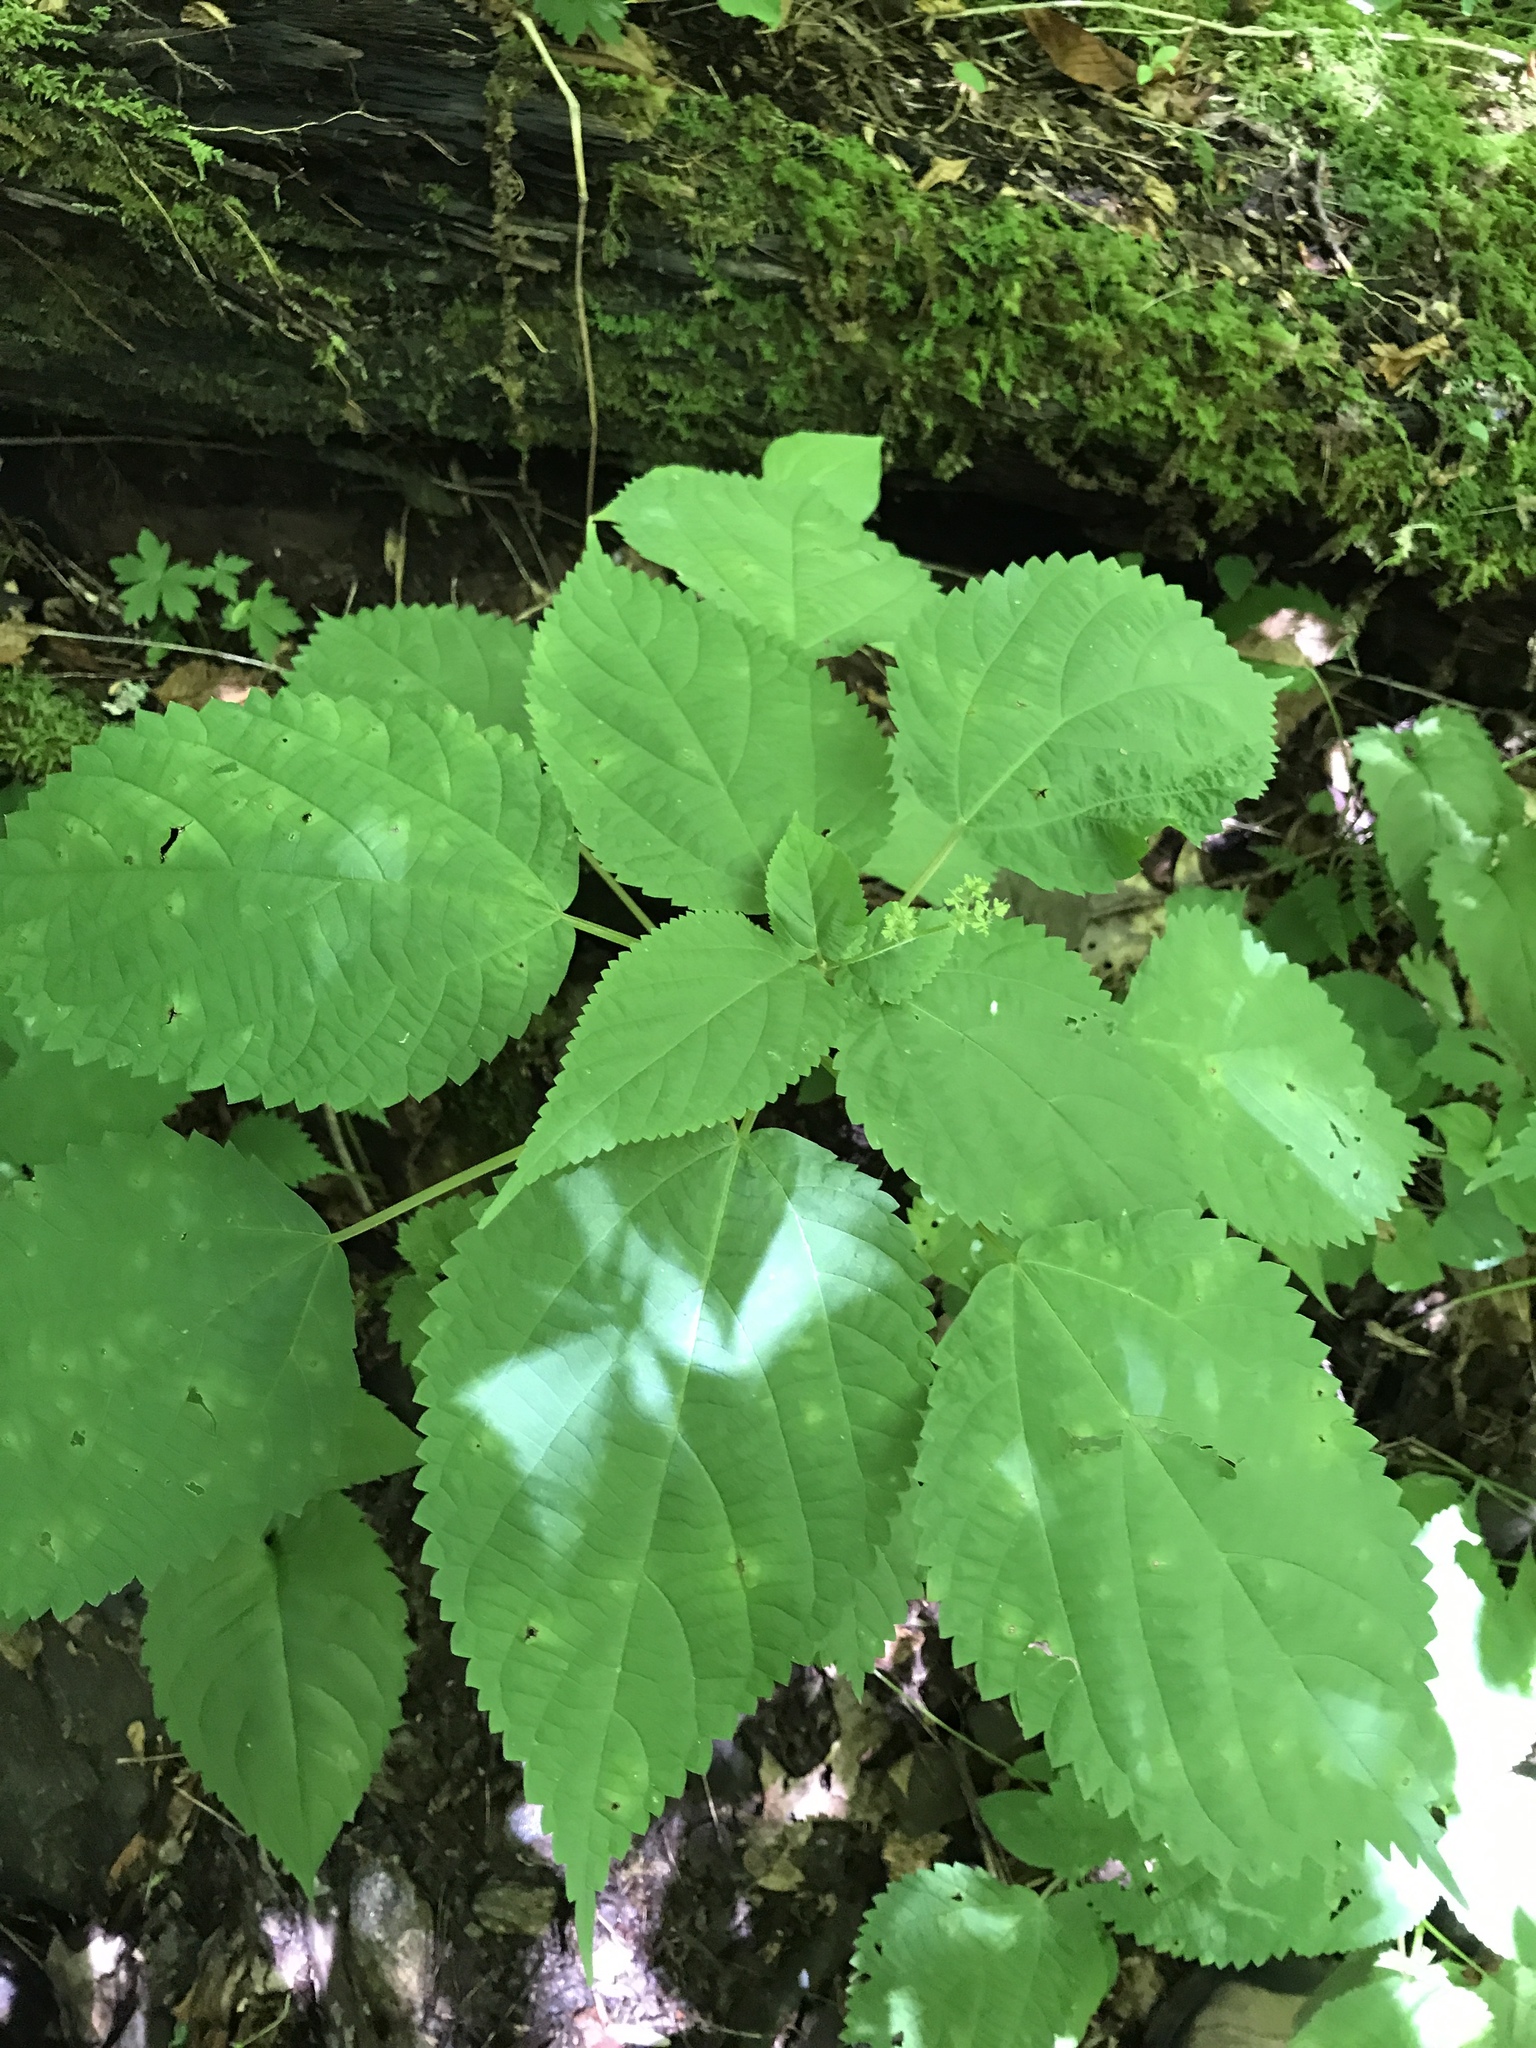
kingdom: Plantae
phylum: Tracheophyta
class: Magnoliopsida
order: Rosales
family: Urticaceae
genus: Laportea
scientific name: Laportea canadensis
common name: Canada nettle
